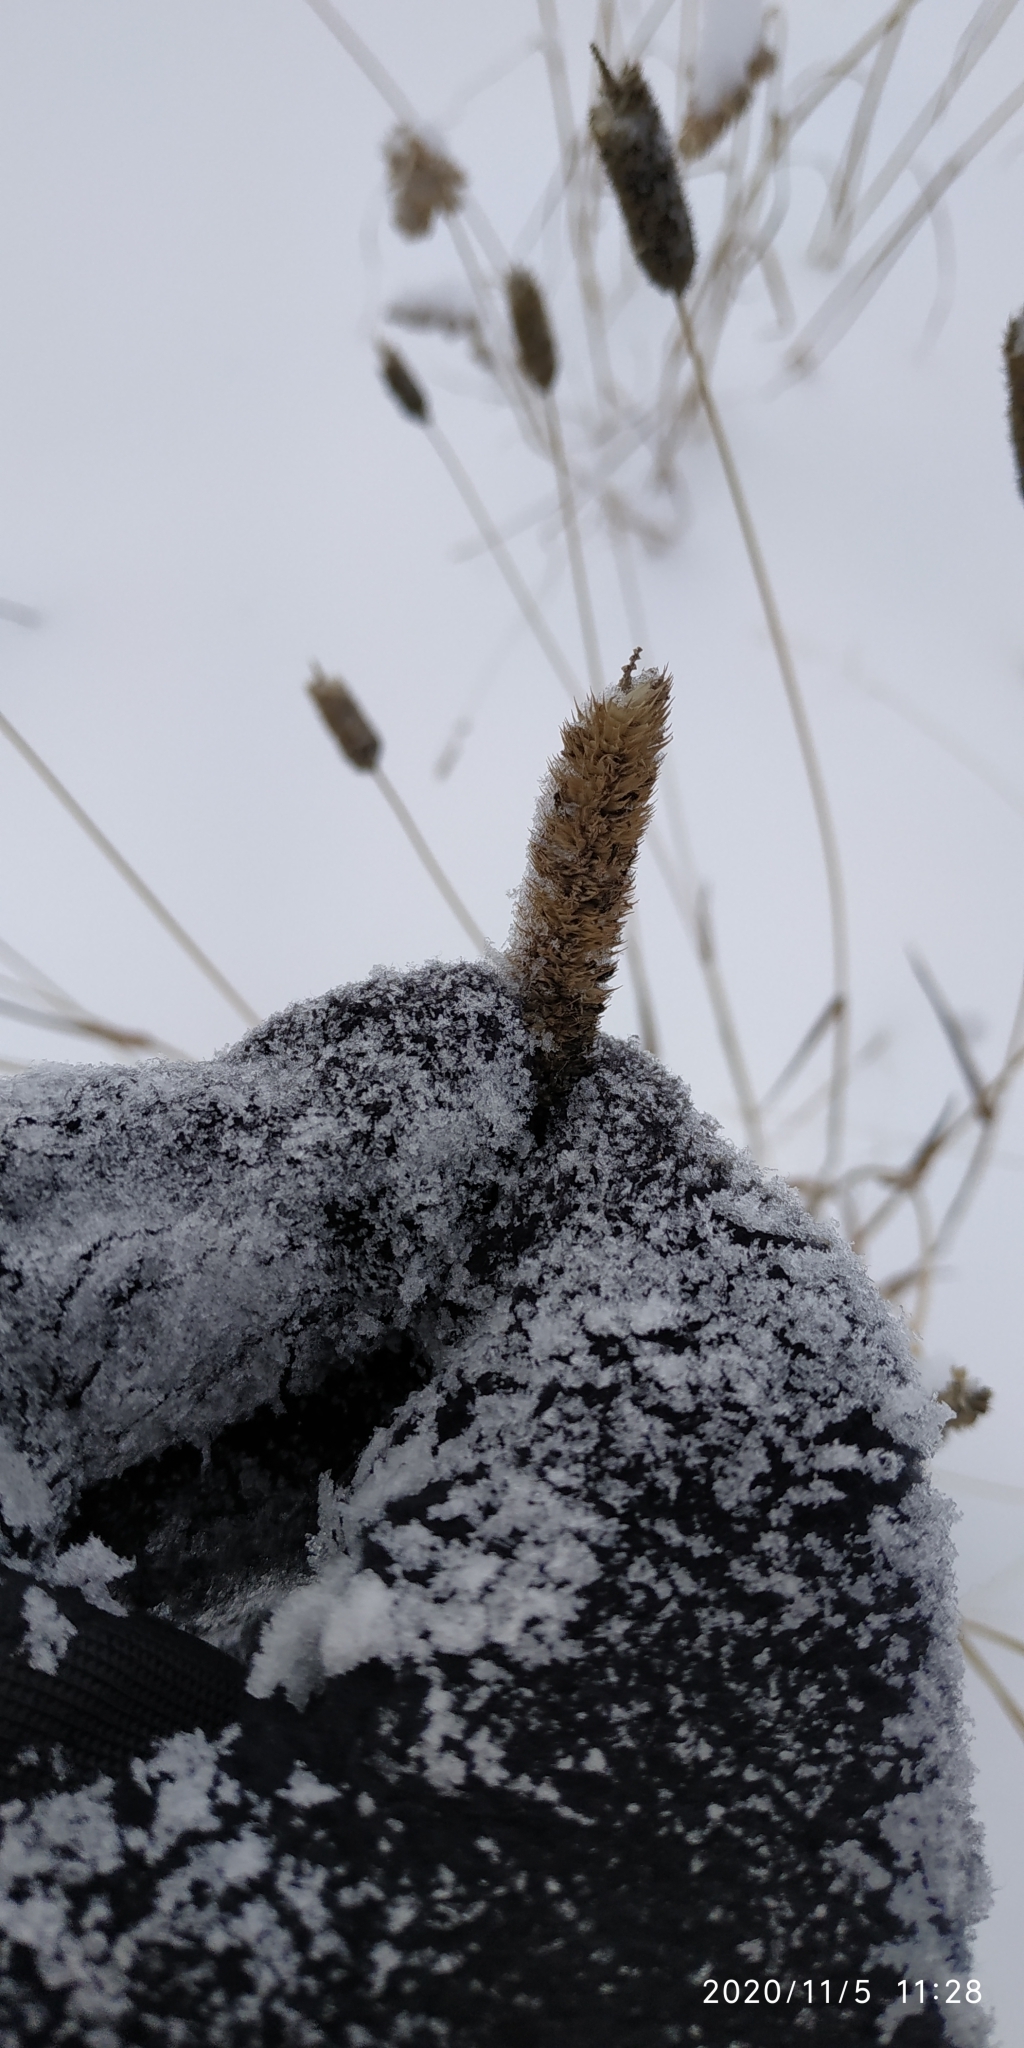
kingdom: Plantae
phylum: Tracheophyta
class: Liliopsida
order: Poales
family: Poaceae
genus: Phleum
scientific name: Phleum pratense
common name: Timothy grass
